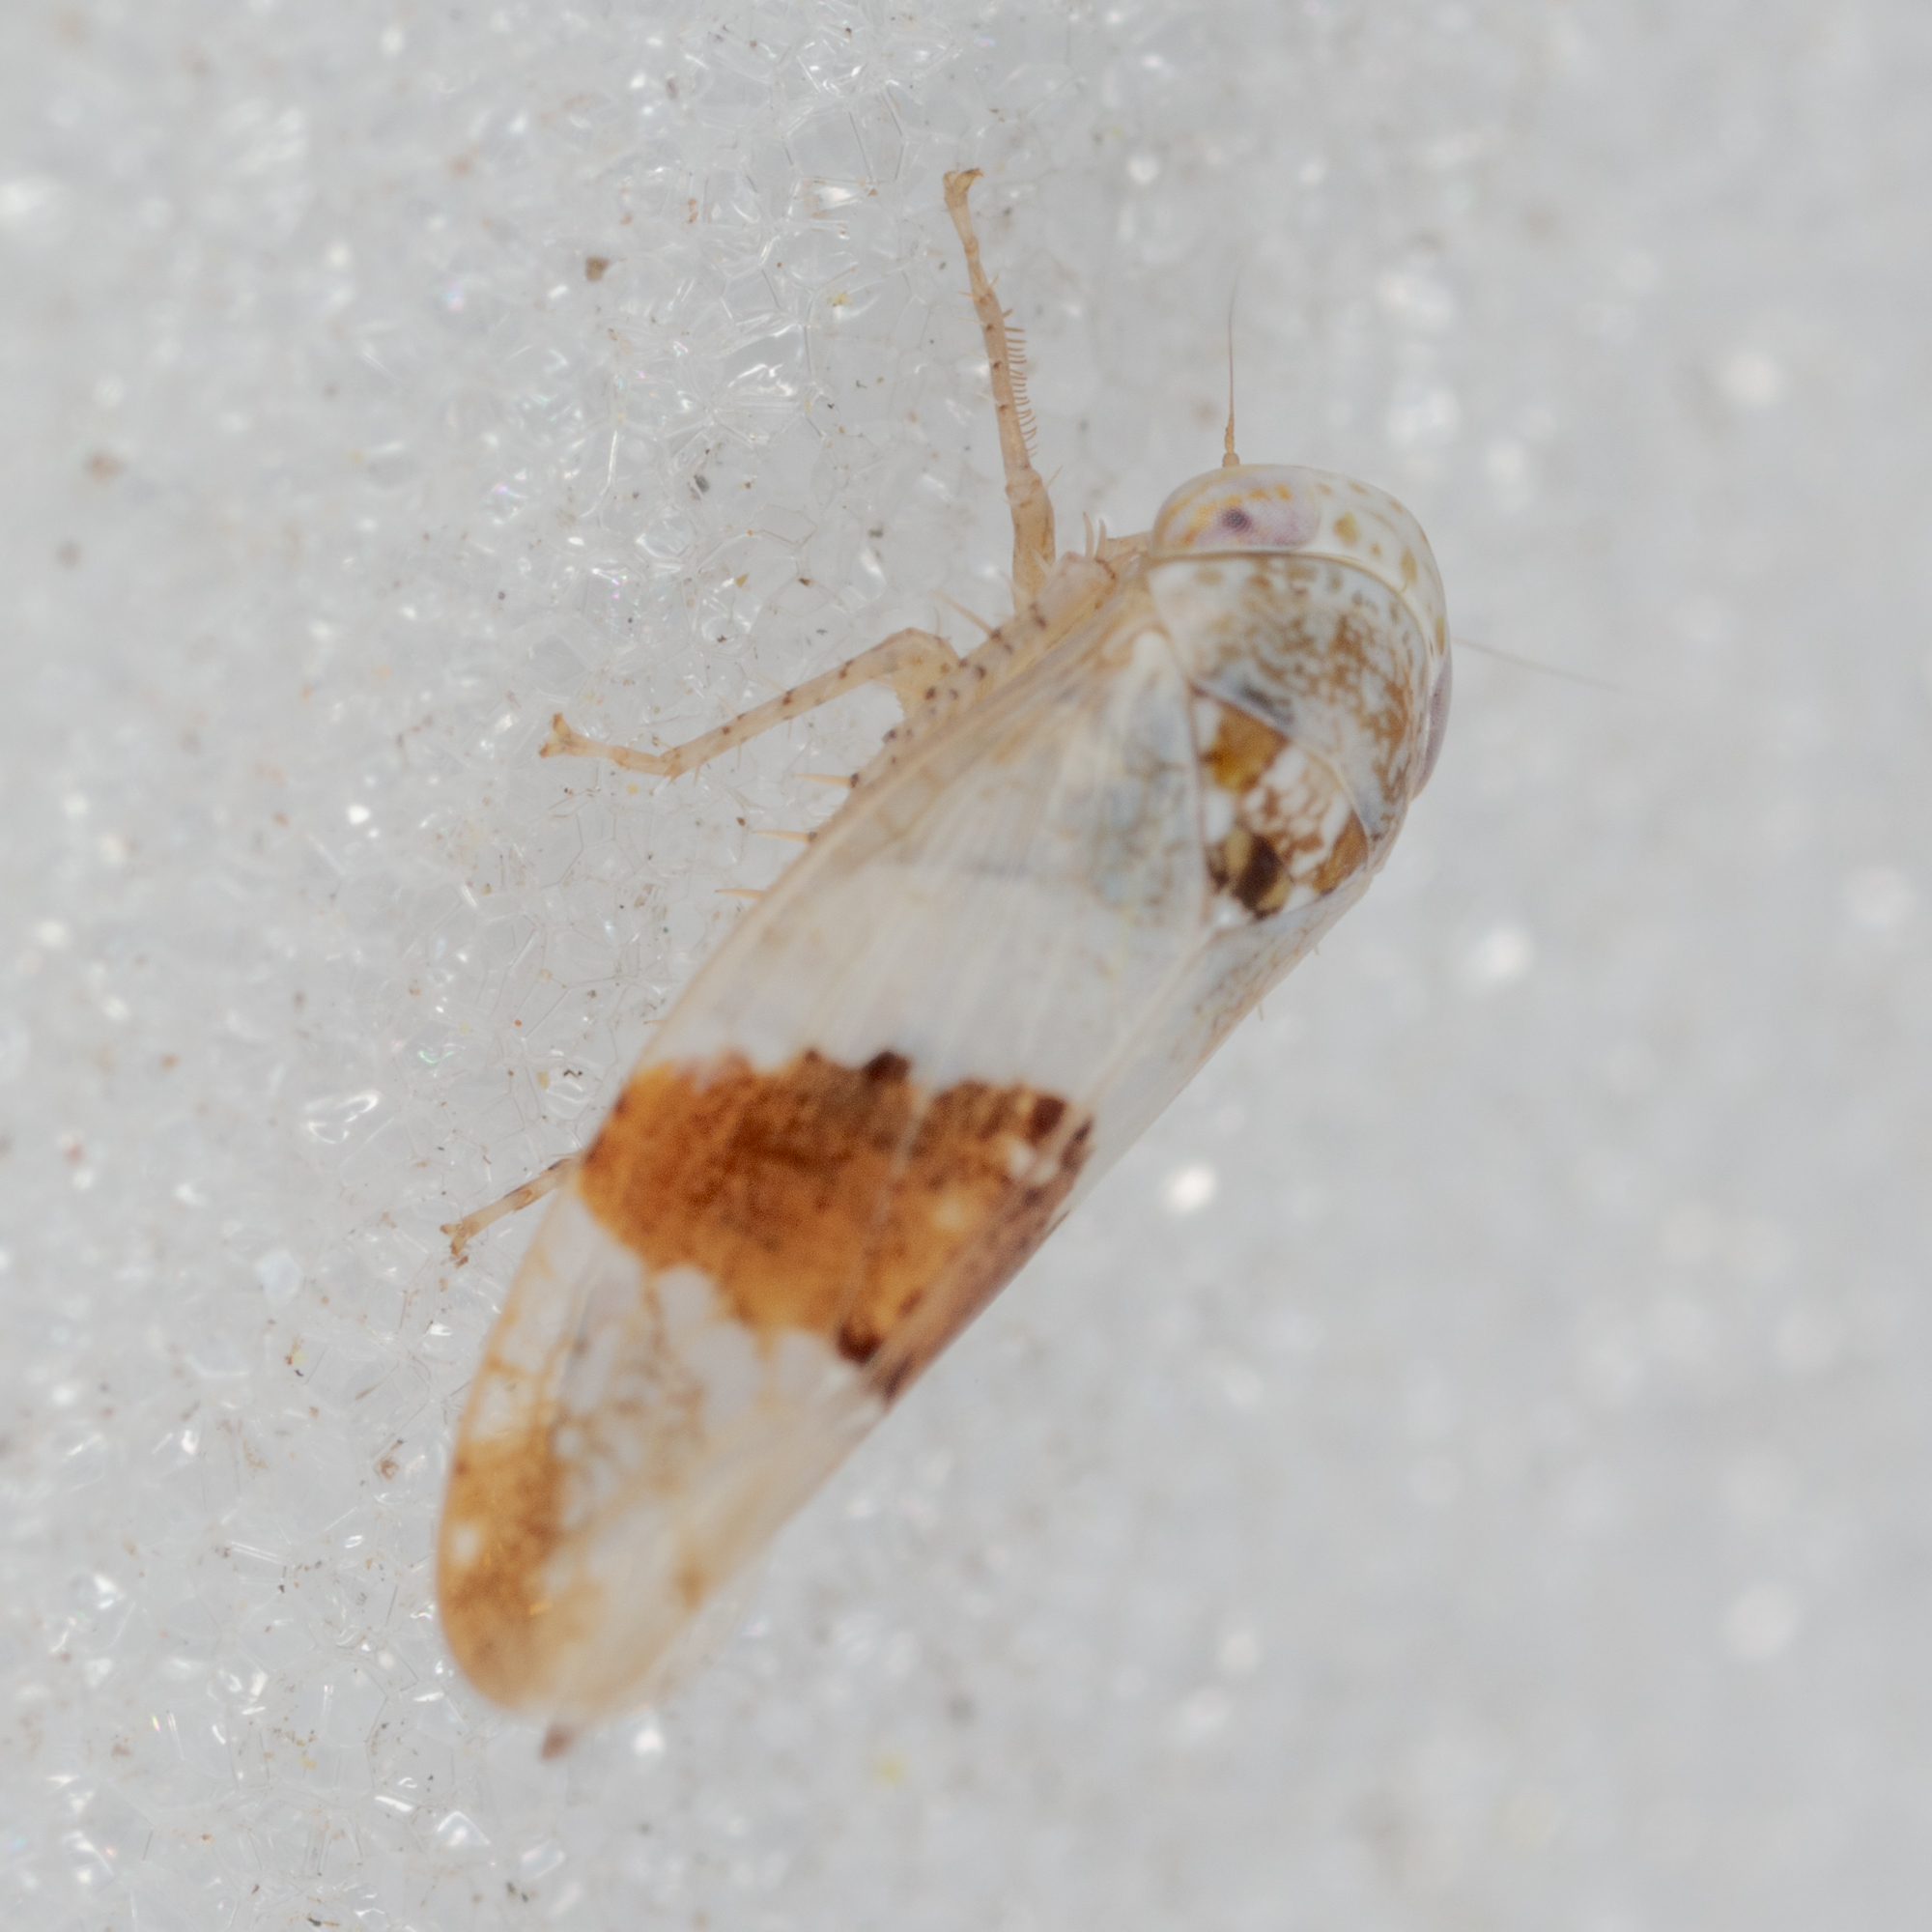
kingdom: Animalia
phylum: Arthropoda
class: Insecta
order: Hemiptera
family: Cicadellidae
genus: Norvellina
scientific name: Norvellina seminuda
